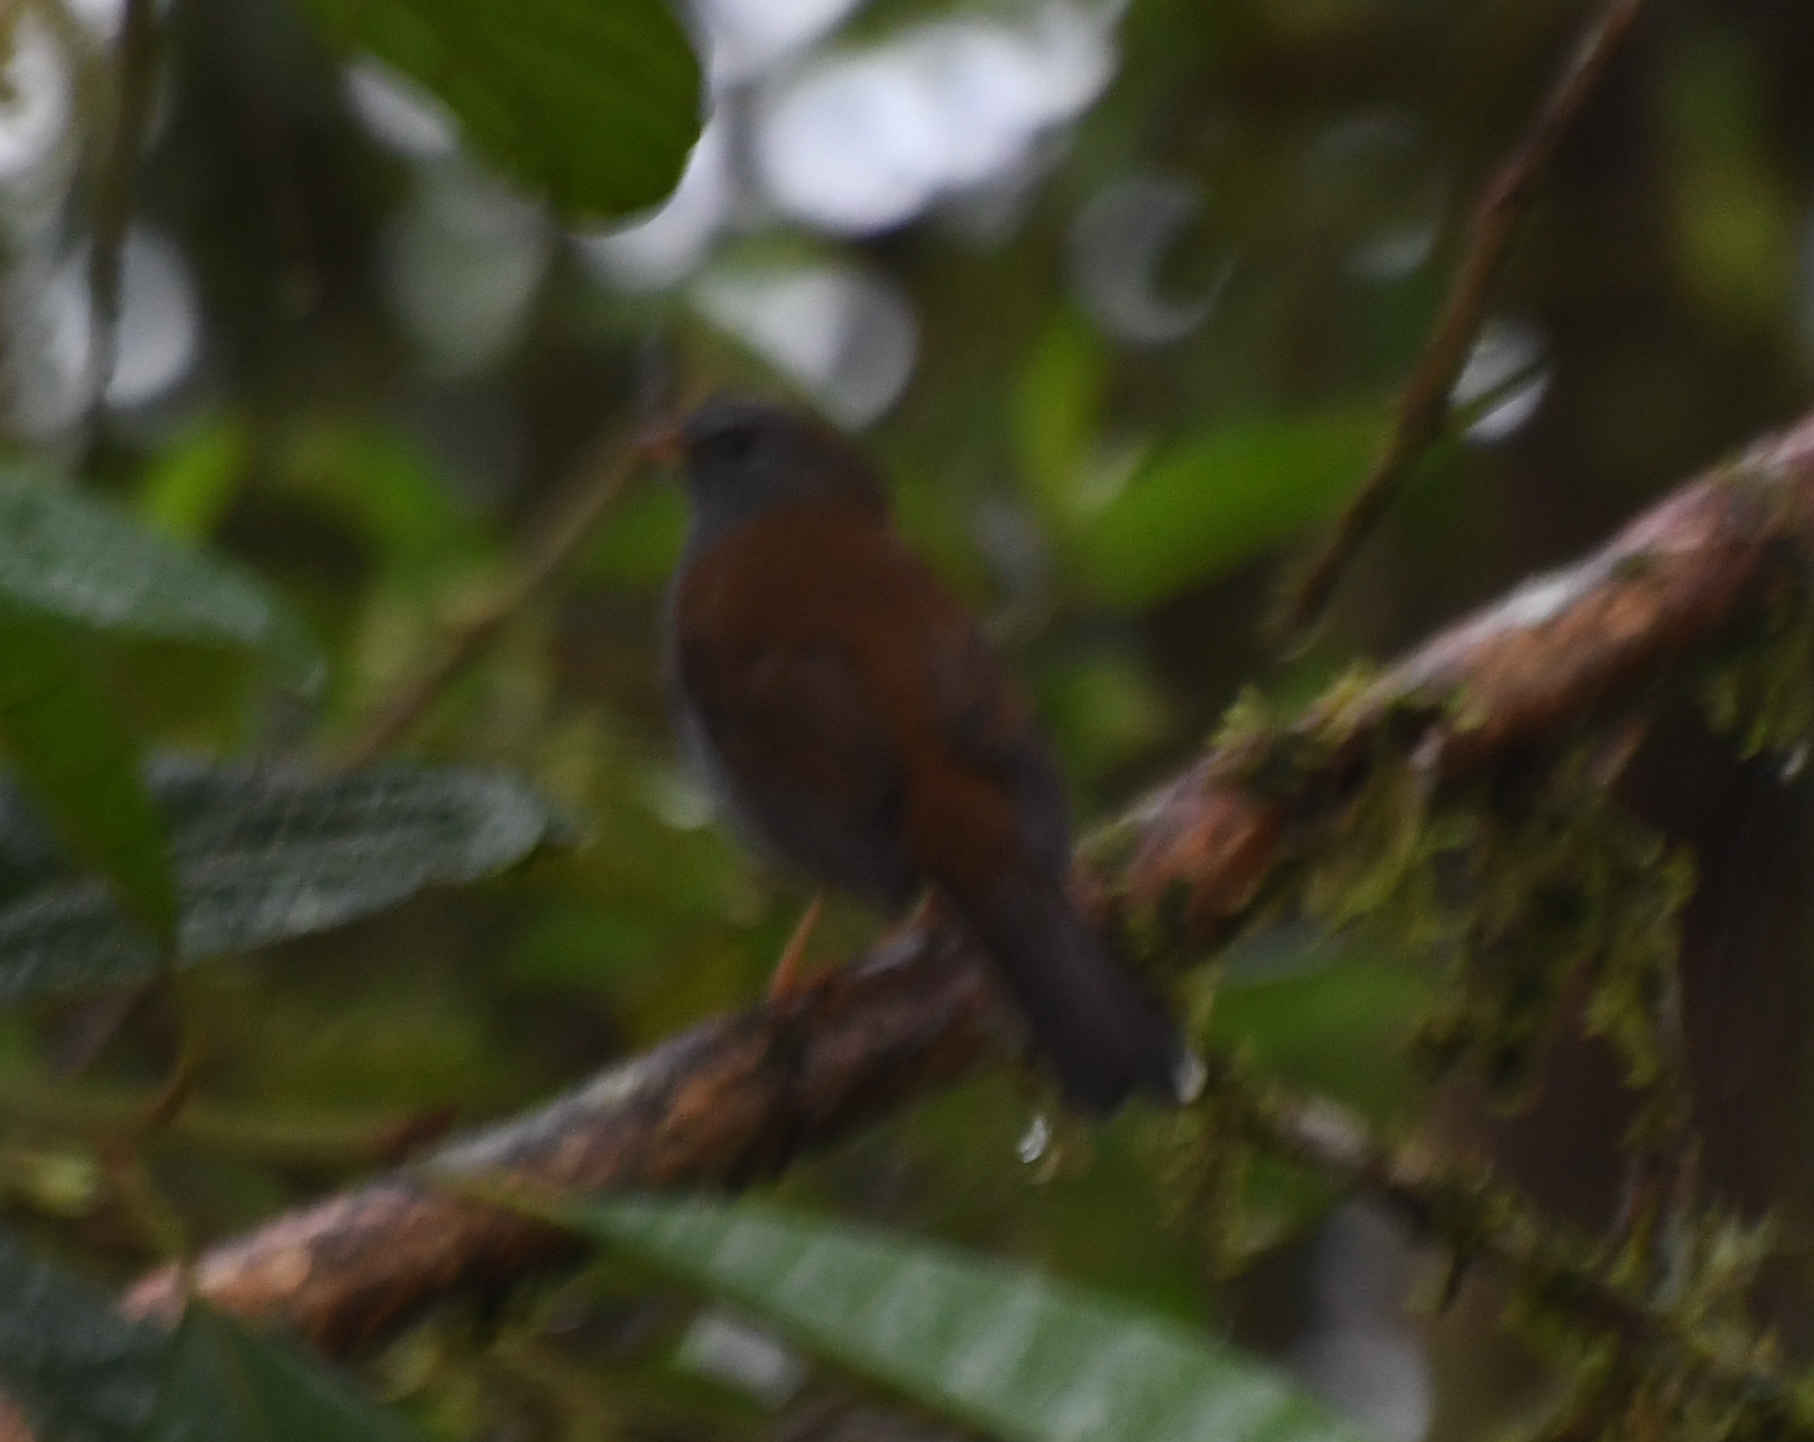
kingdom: Animalia
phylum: Chordata
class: Aves
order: Passeriformes
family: Turdidae
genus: Myadestes
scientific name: Myadestes ralloides
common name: Andean solitaire
